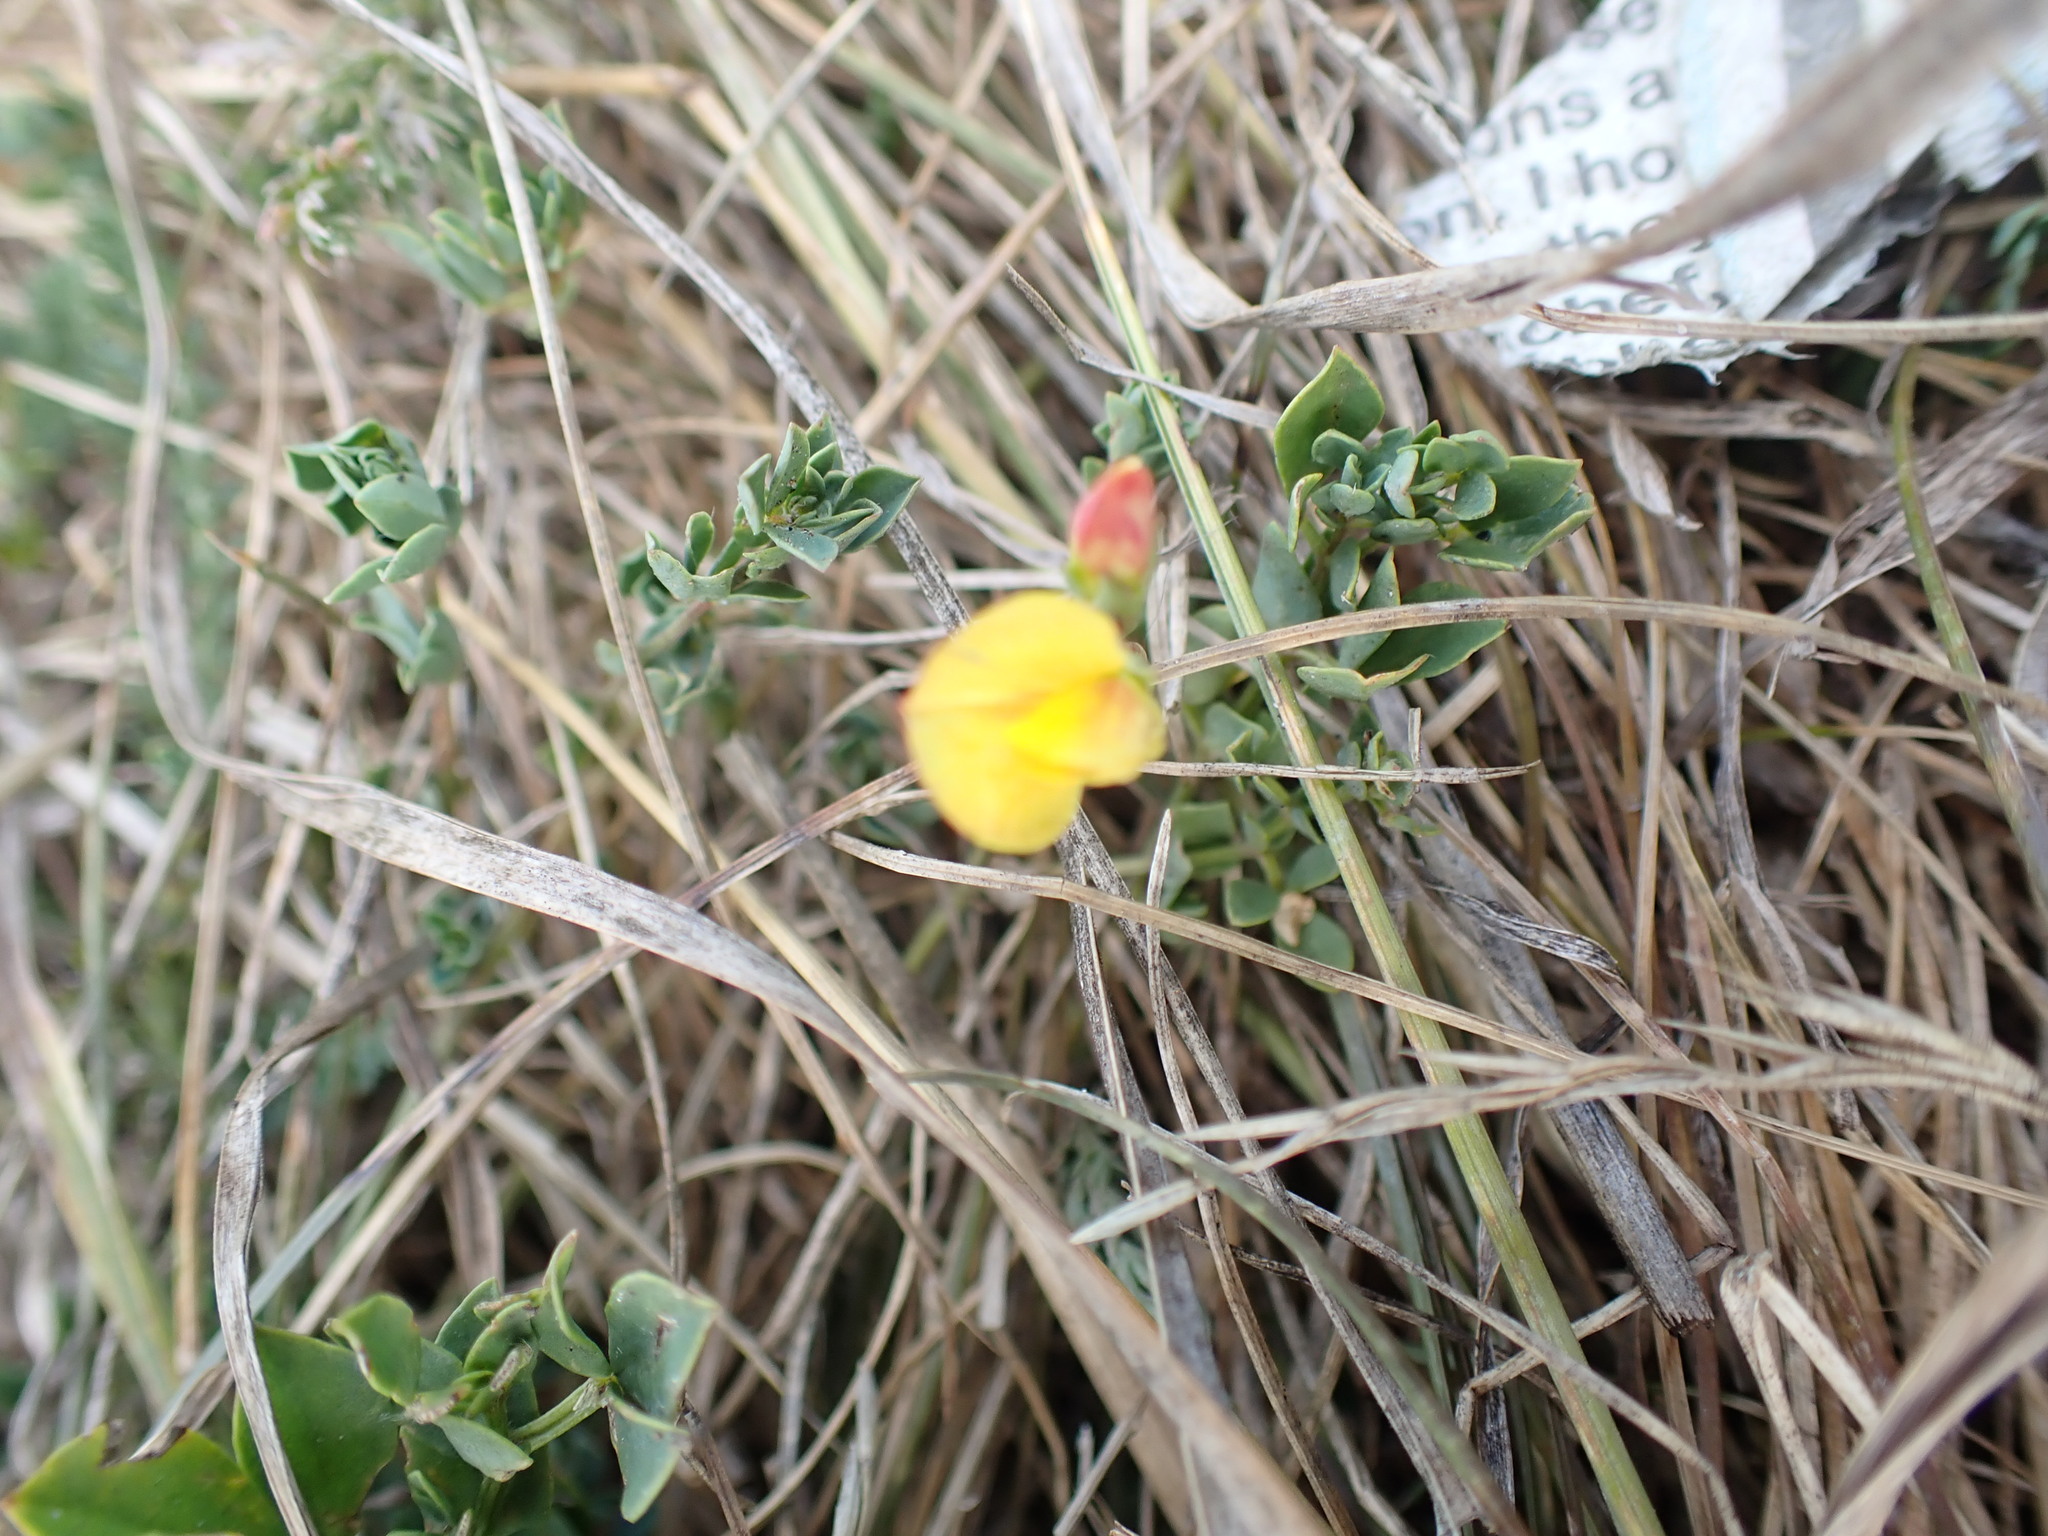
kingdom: Plantae
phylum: Tracheophyta
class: Magnoliopsida
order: Fabales
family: Fabaceae
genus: Lotus
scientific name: Lotus corniculatus
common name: Common bird's-foot-trefoil
